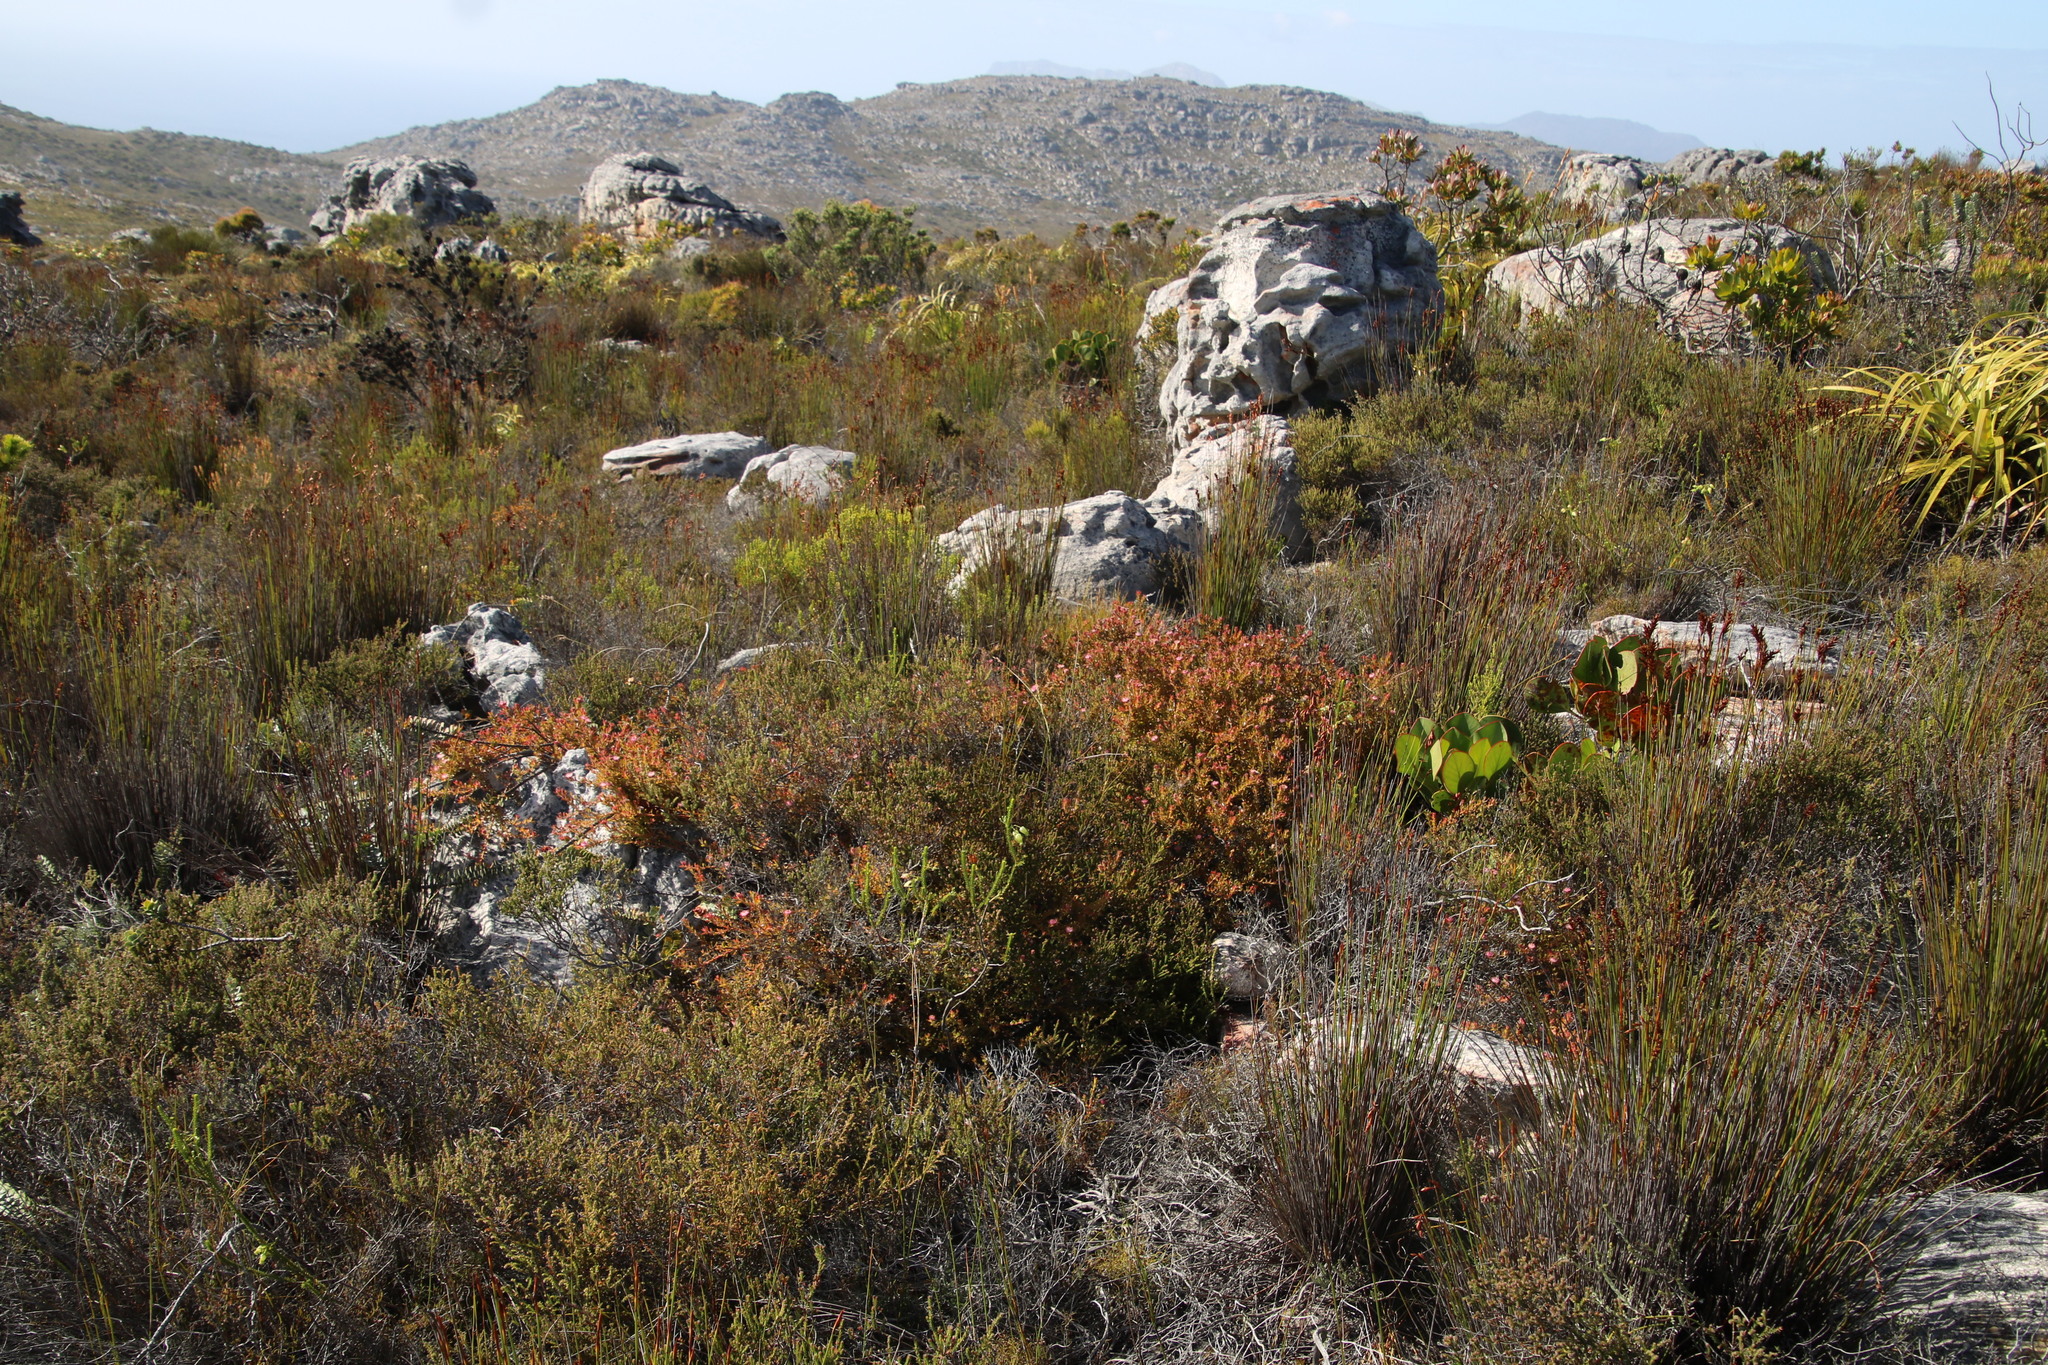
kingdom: Plantae
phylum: Tracheophyta
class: Magnoliopsida
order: Proteales
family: Proteaceae
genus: Diastella
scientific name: Diastella divaricata
